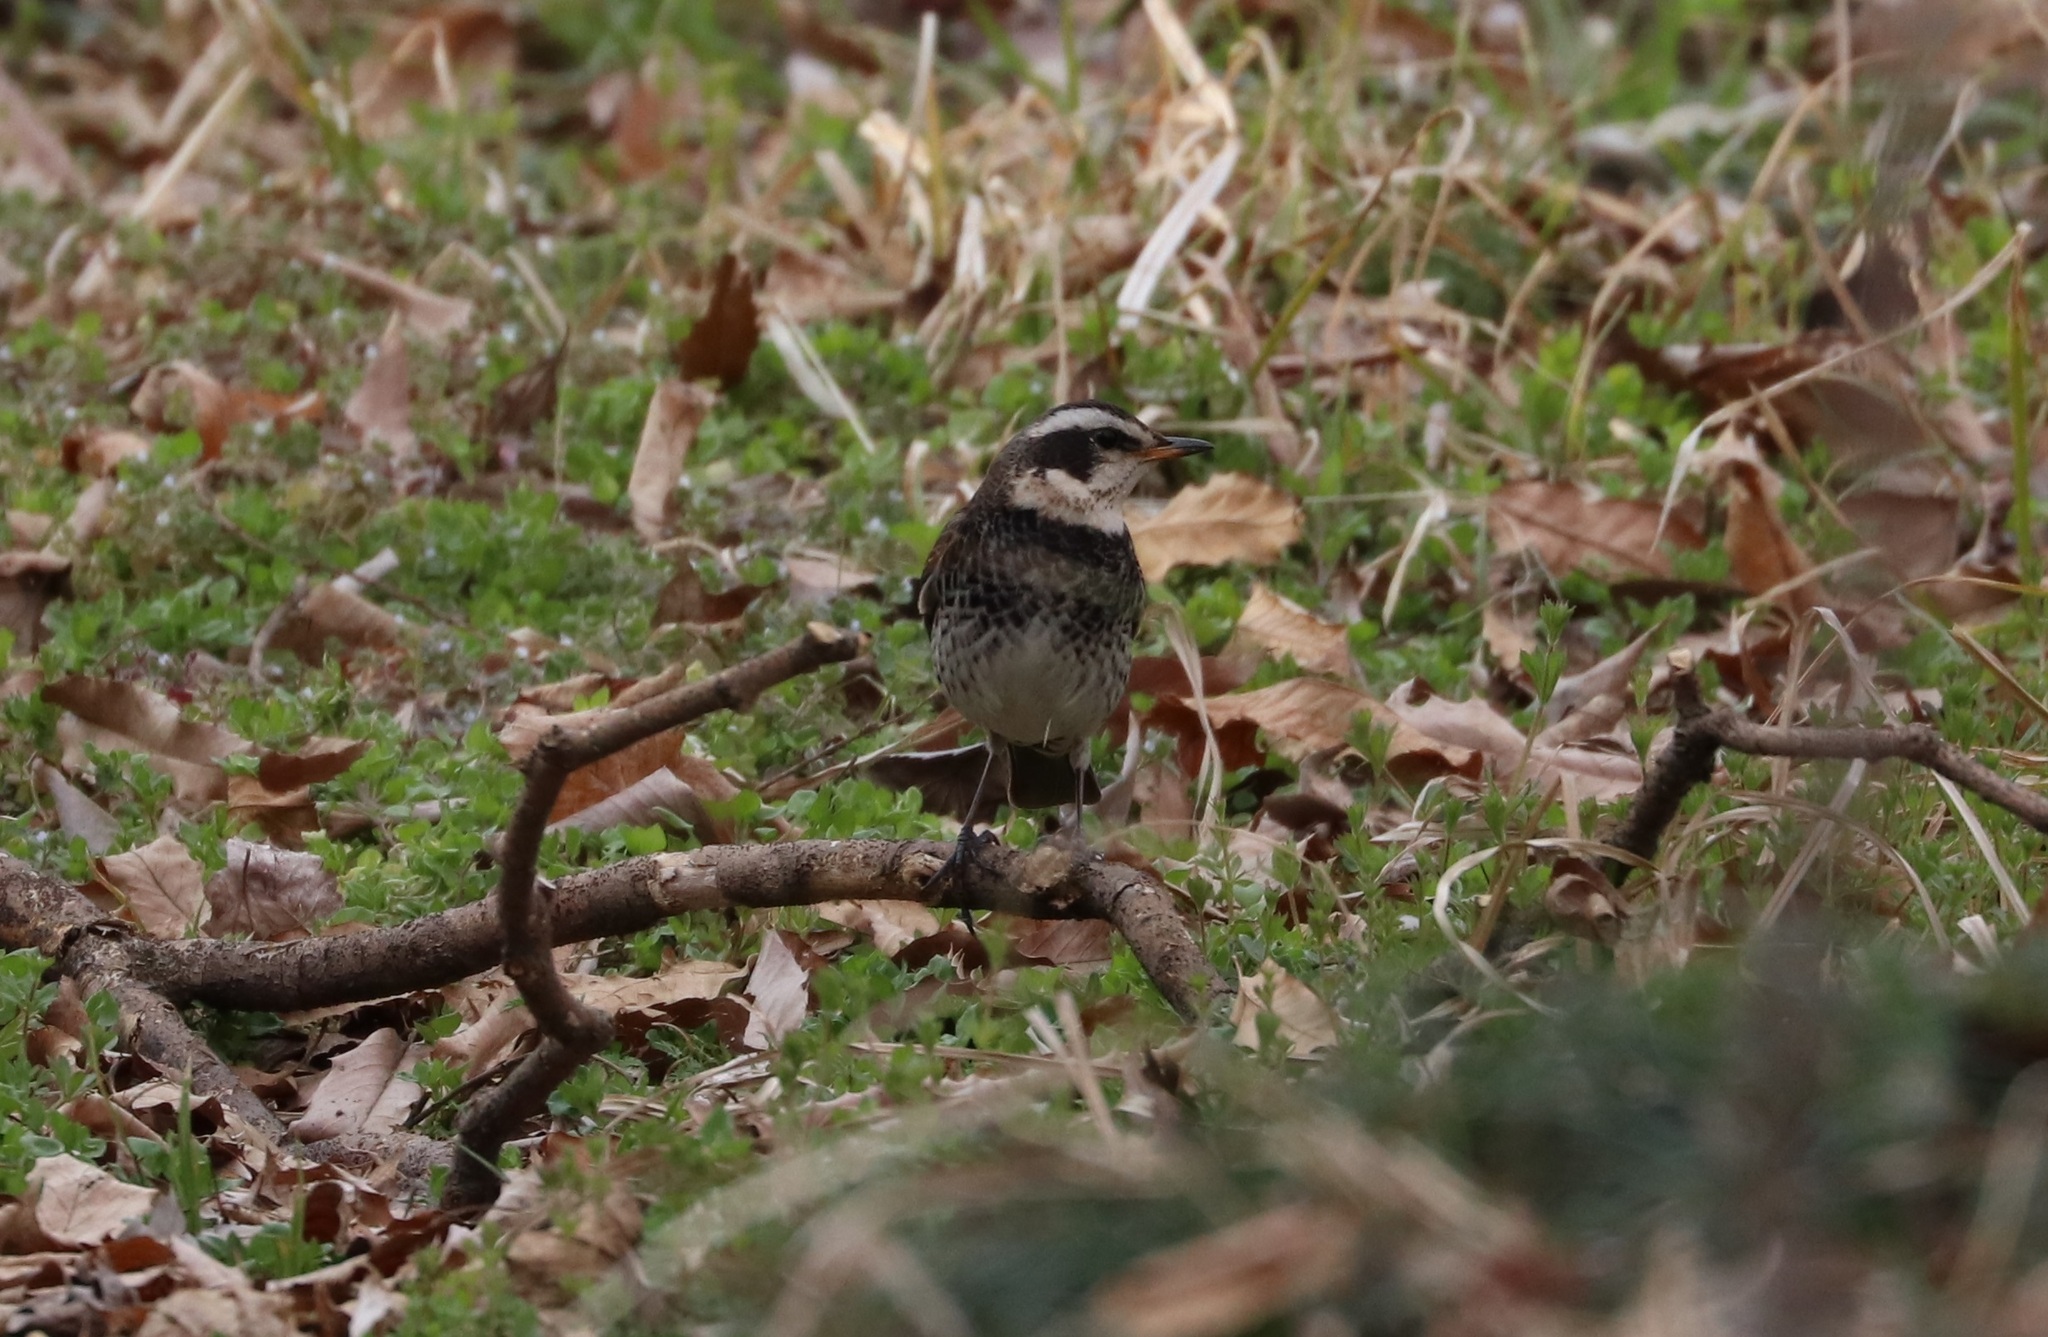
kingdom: Animalia
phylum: Chordata
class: Aves
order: Passeriformes
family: Turdidae
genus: Turdus
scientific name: Turdus eunomus
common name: Dusky thrush
